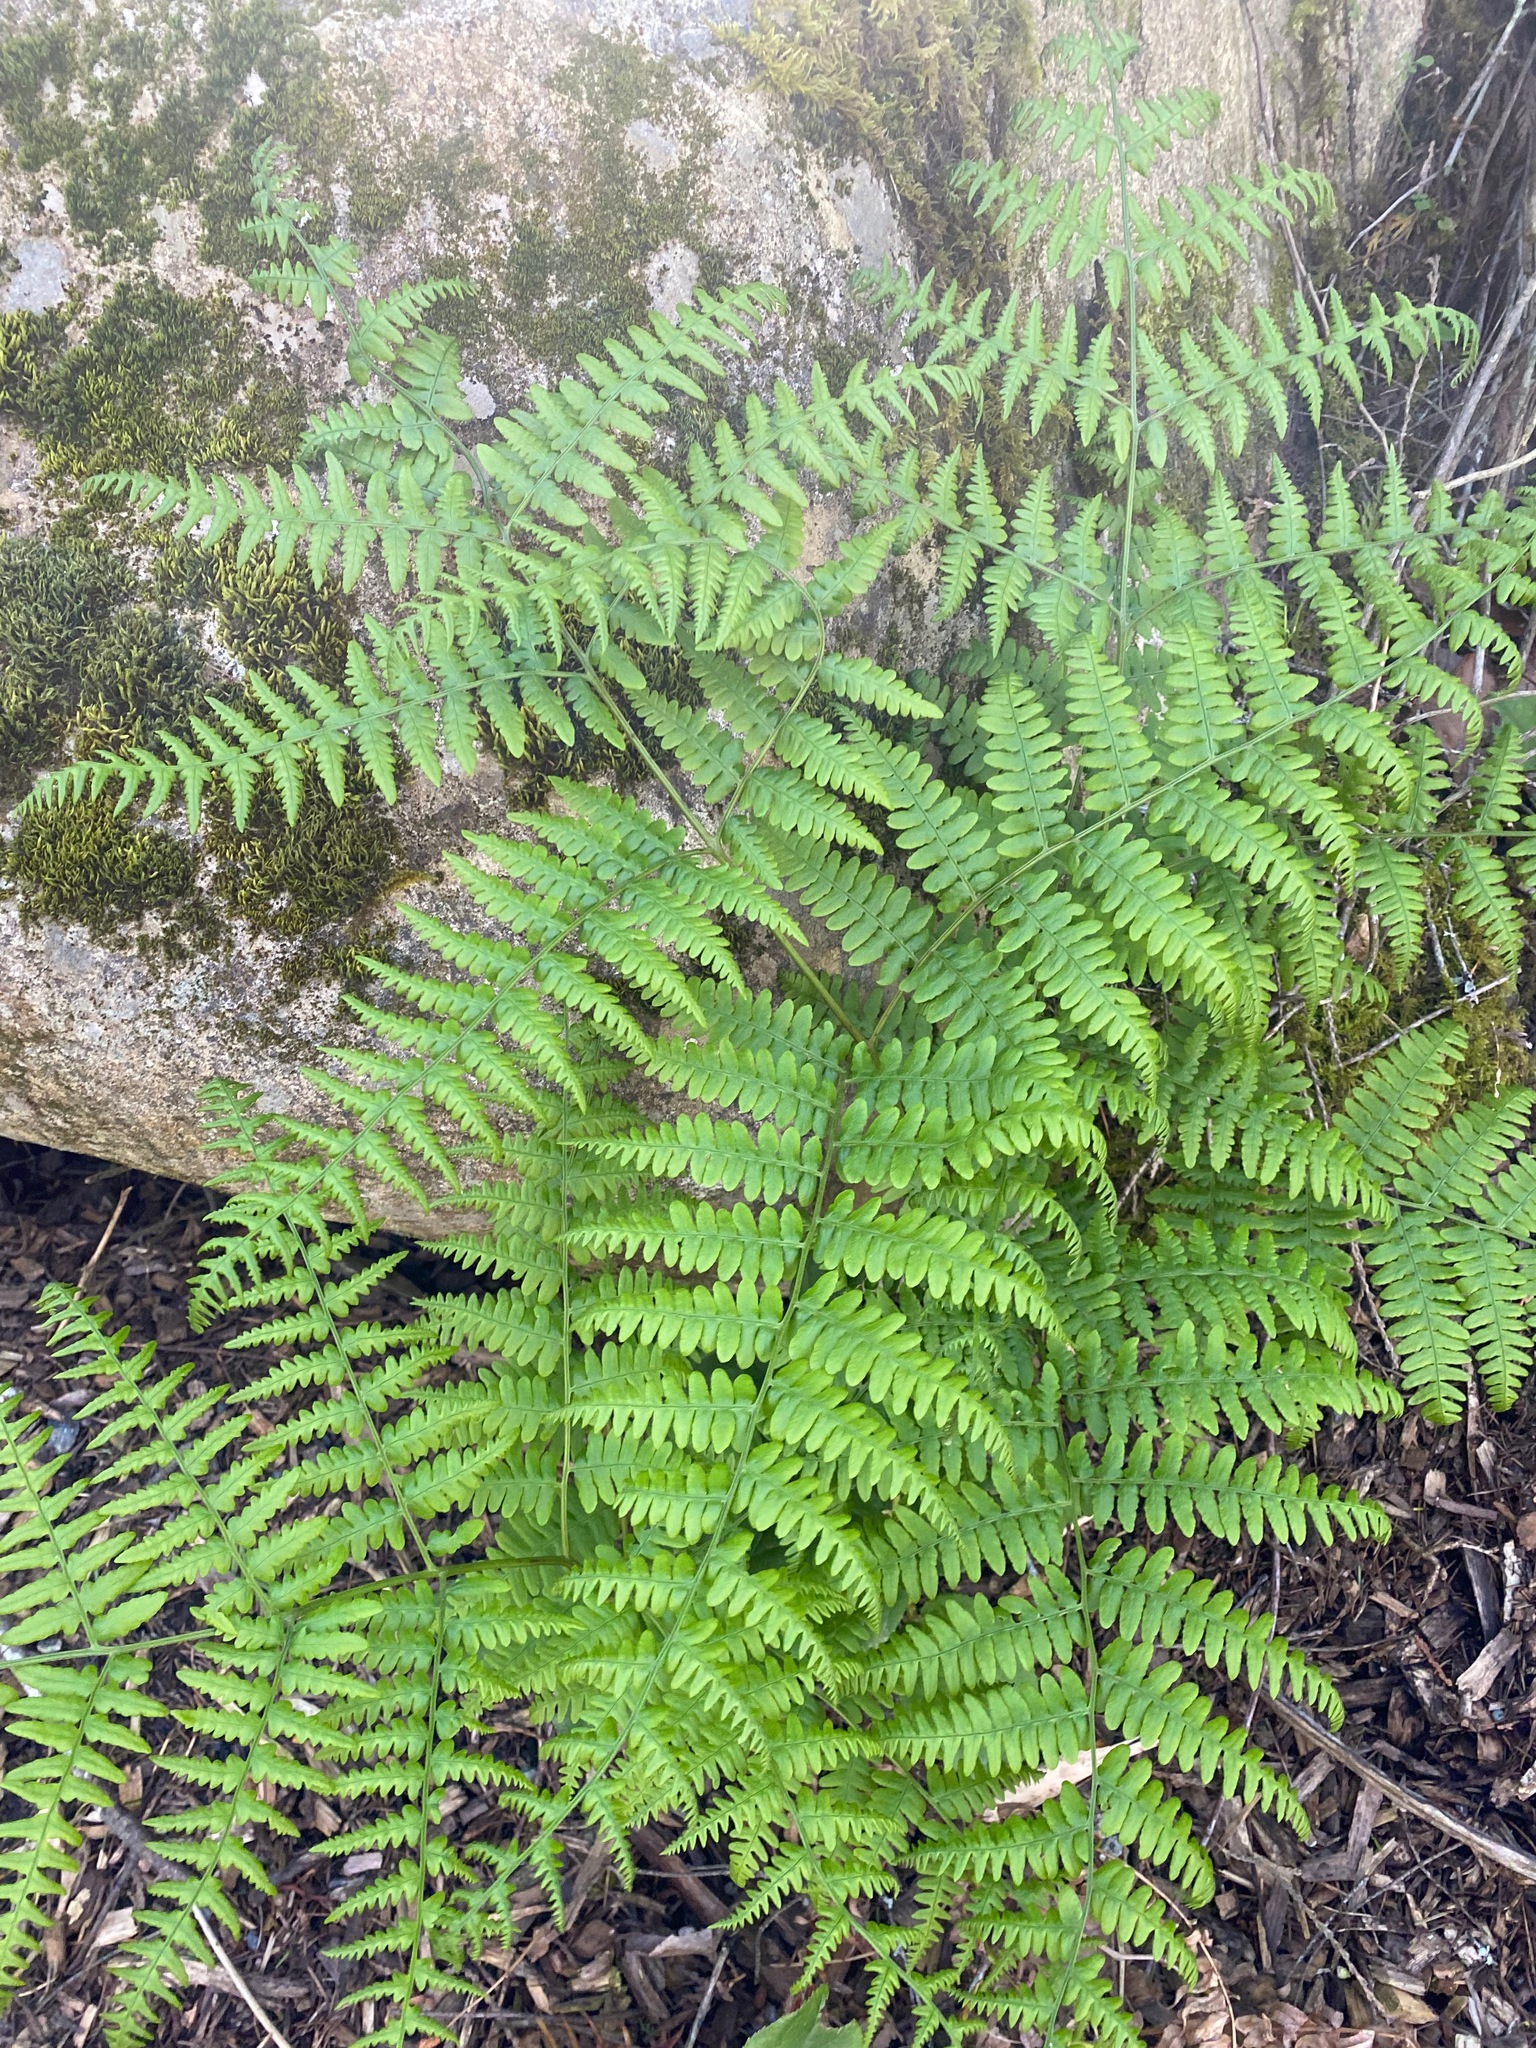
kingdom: Plantae
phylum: Tracheophyta
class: Polypodiopsida
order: Polypodiales
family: Dennstaedtiaceae
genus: Pteridium
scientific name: Pteridium aquilinum
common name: Bracken
